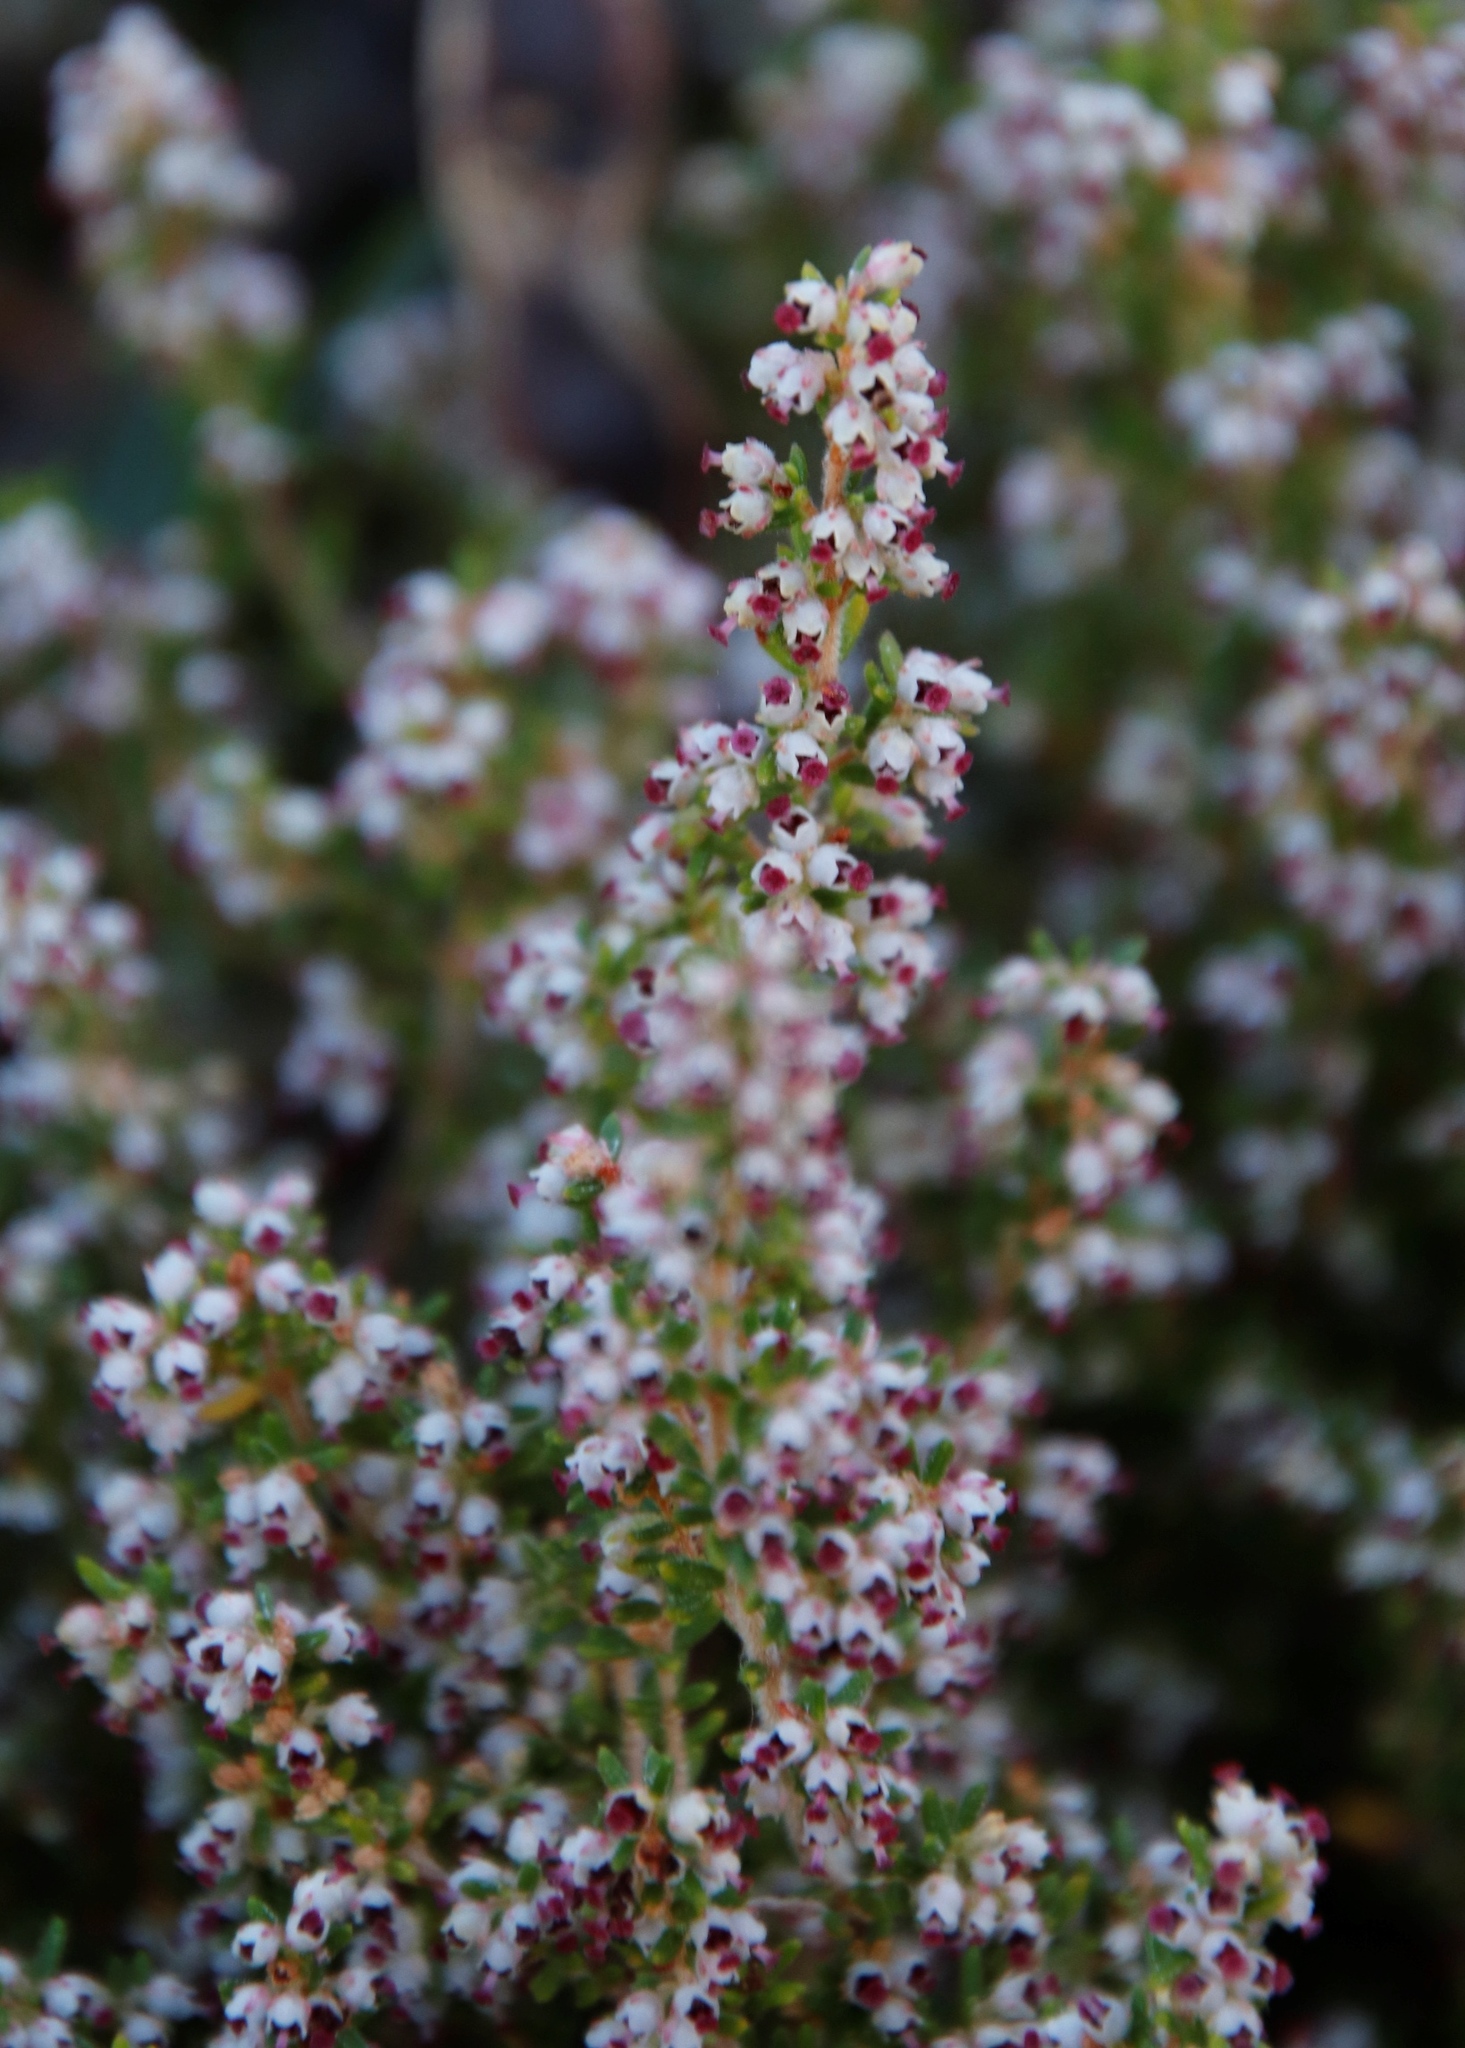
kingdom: Plantae
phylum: Tracheophyta
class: Magnoliopsida
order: Ericales
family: Ericaceae
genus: Erica
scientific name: Erica hispidula
